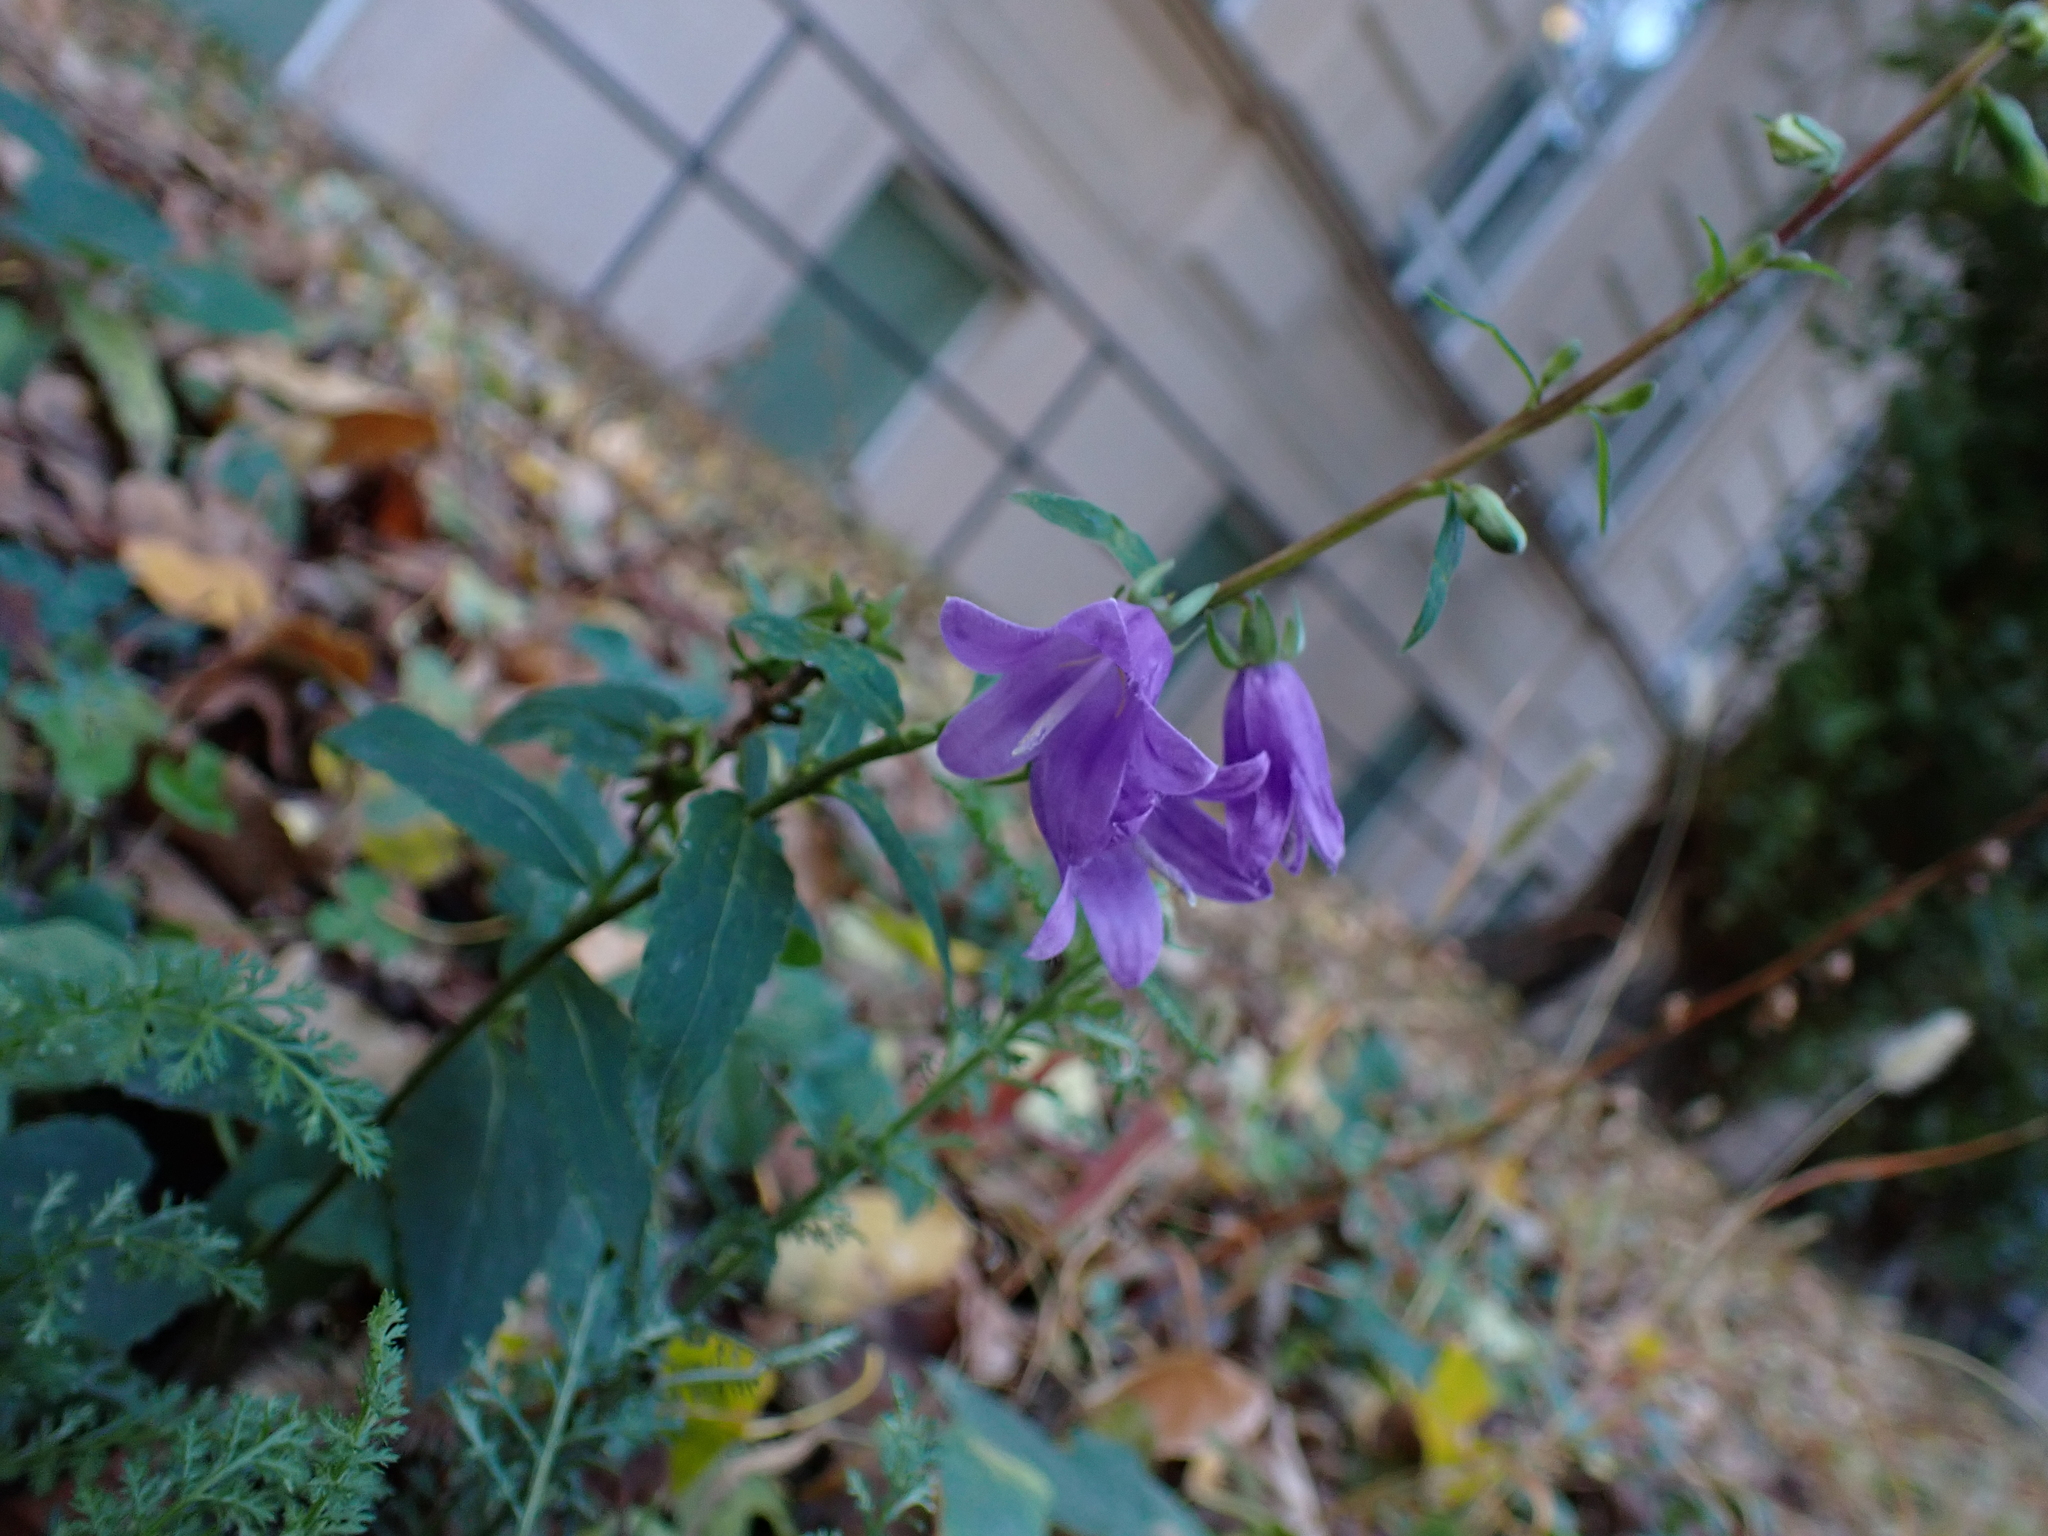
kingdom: Plantae
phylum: Tracheophyta
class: Magnoliopsida
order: Asterales
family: Campanulaceae
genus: Campanula
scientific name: Campanula rapunculoides
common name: Creeping bellflower
